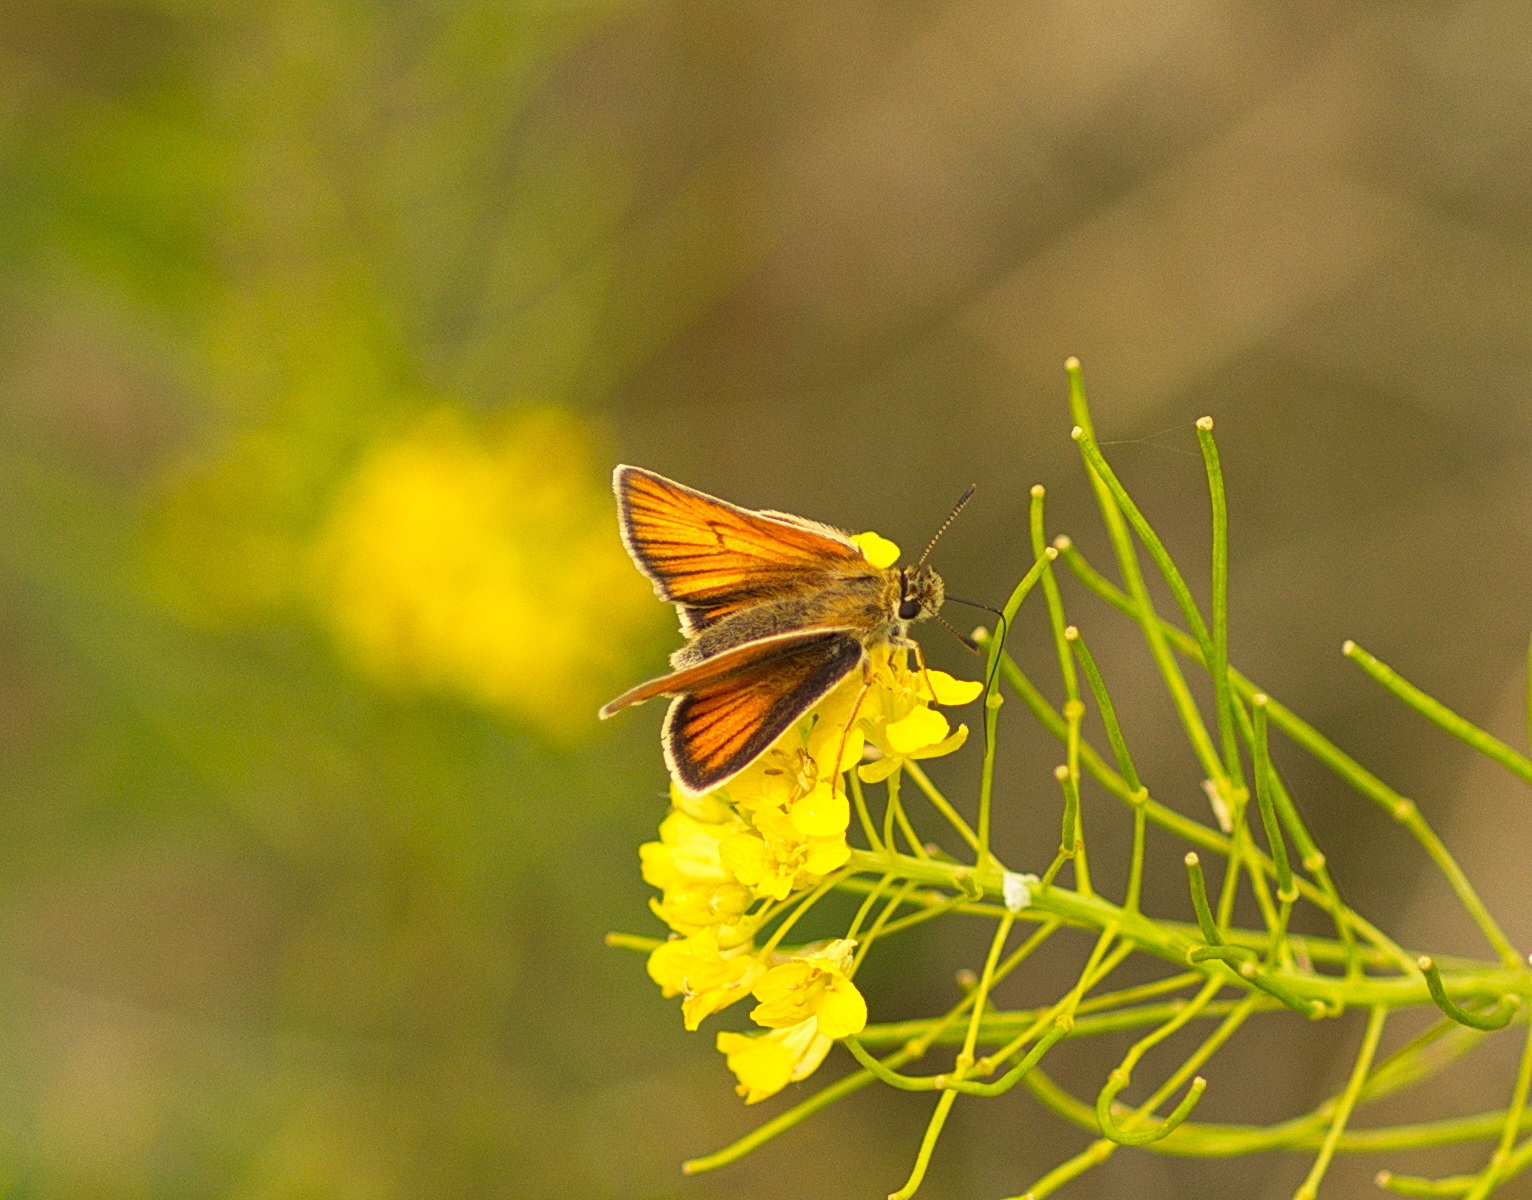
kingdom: Animalia
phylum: Arthropoda
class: Insecta
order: Lepidoptera
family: Hesperiidae
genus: Thymelicus
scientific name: Thymelicus lineola
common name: Essex skipper
